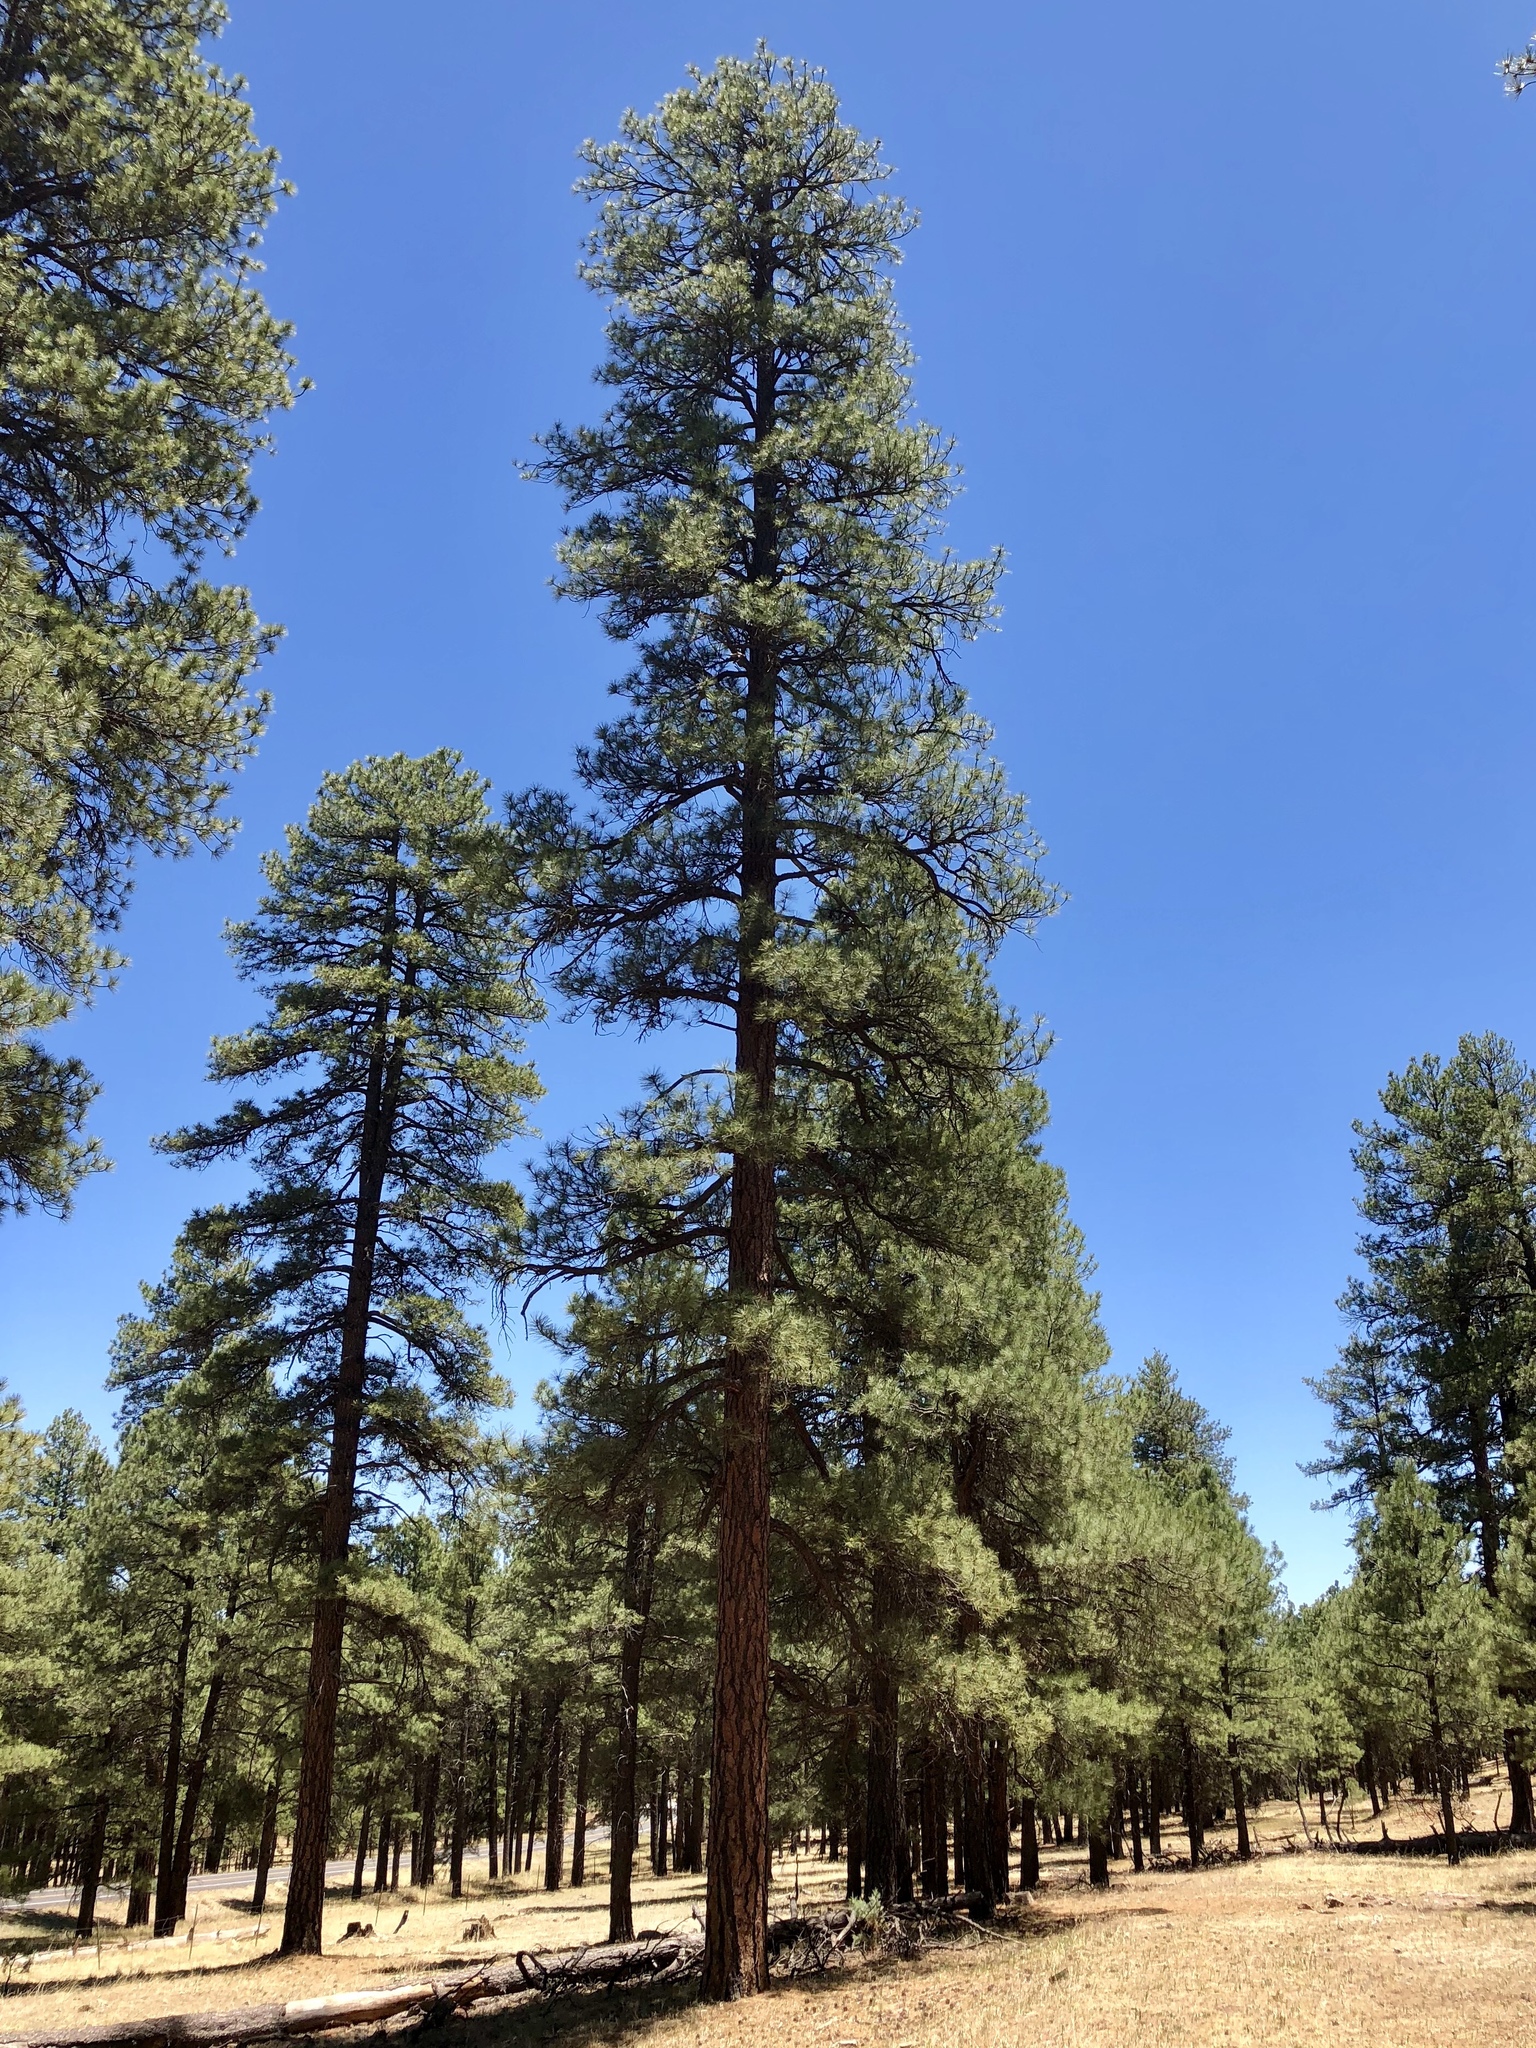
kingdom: Plantae
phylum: Tracheophyta
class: Pinopsida
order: Pinales
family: Pinaceae
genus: Pinus
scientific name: Pinus ponderosa
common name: Western yellow-pine
